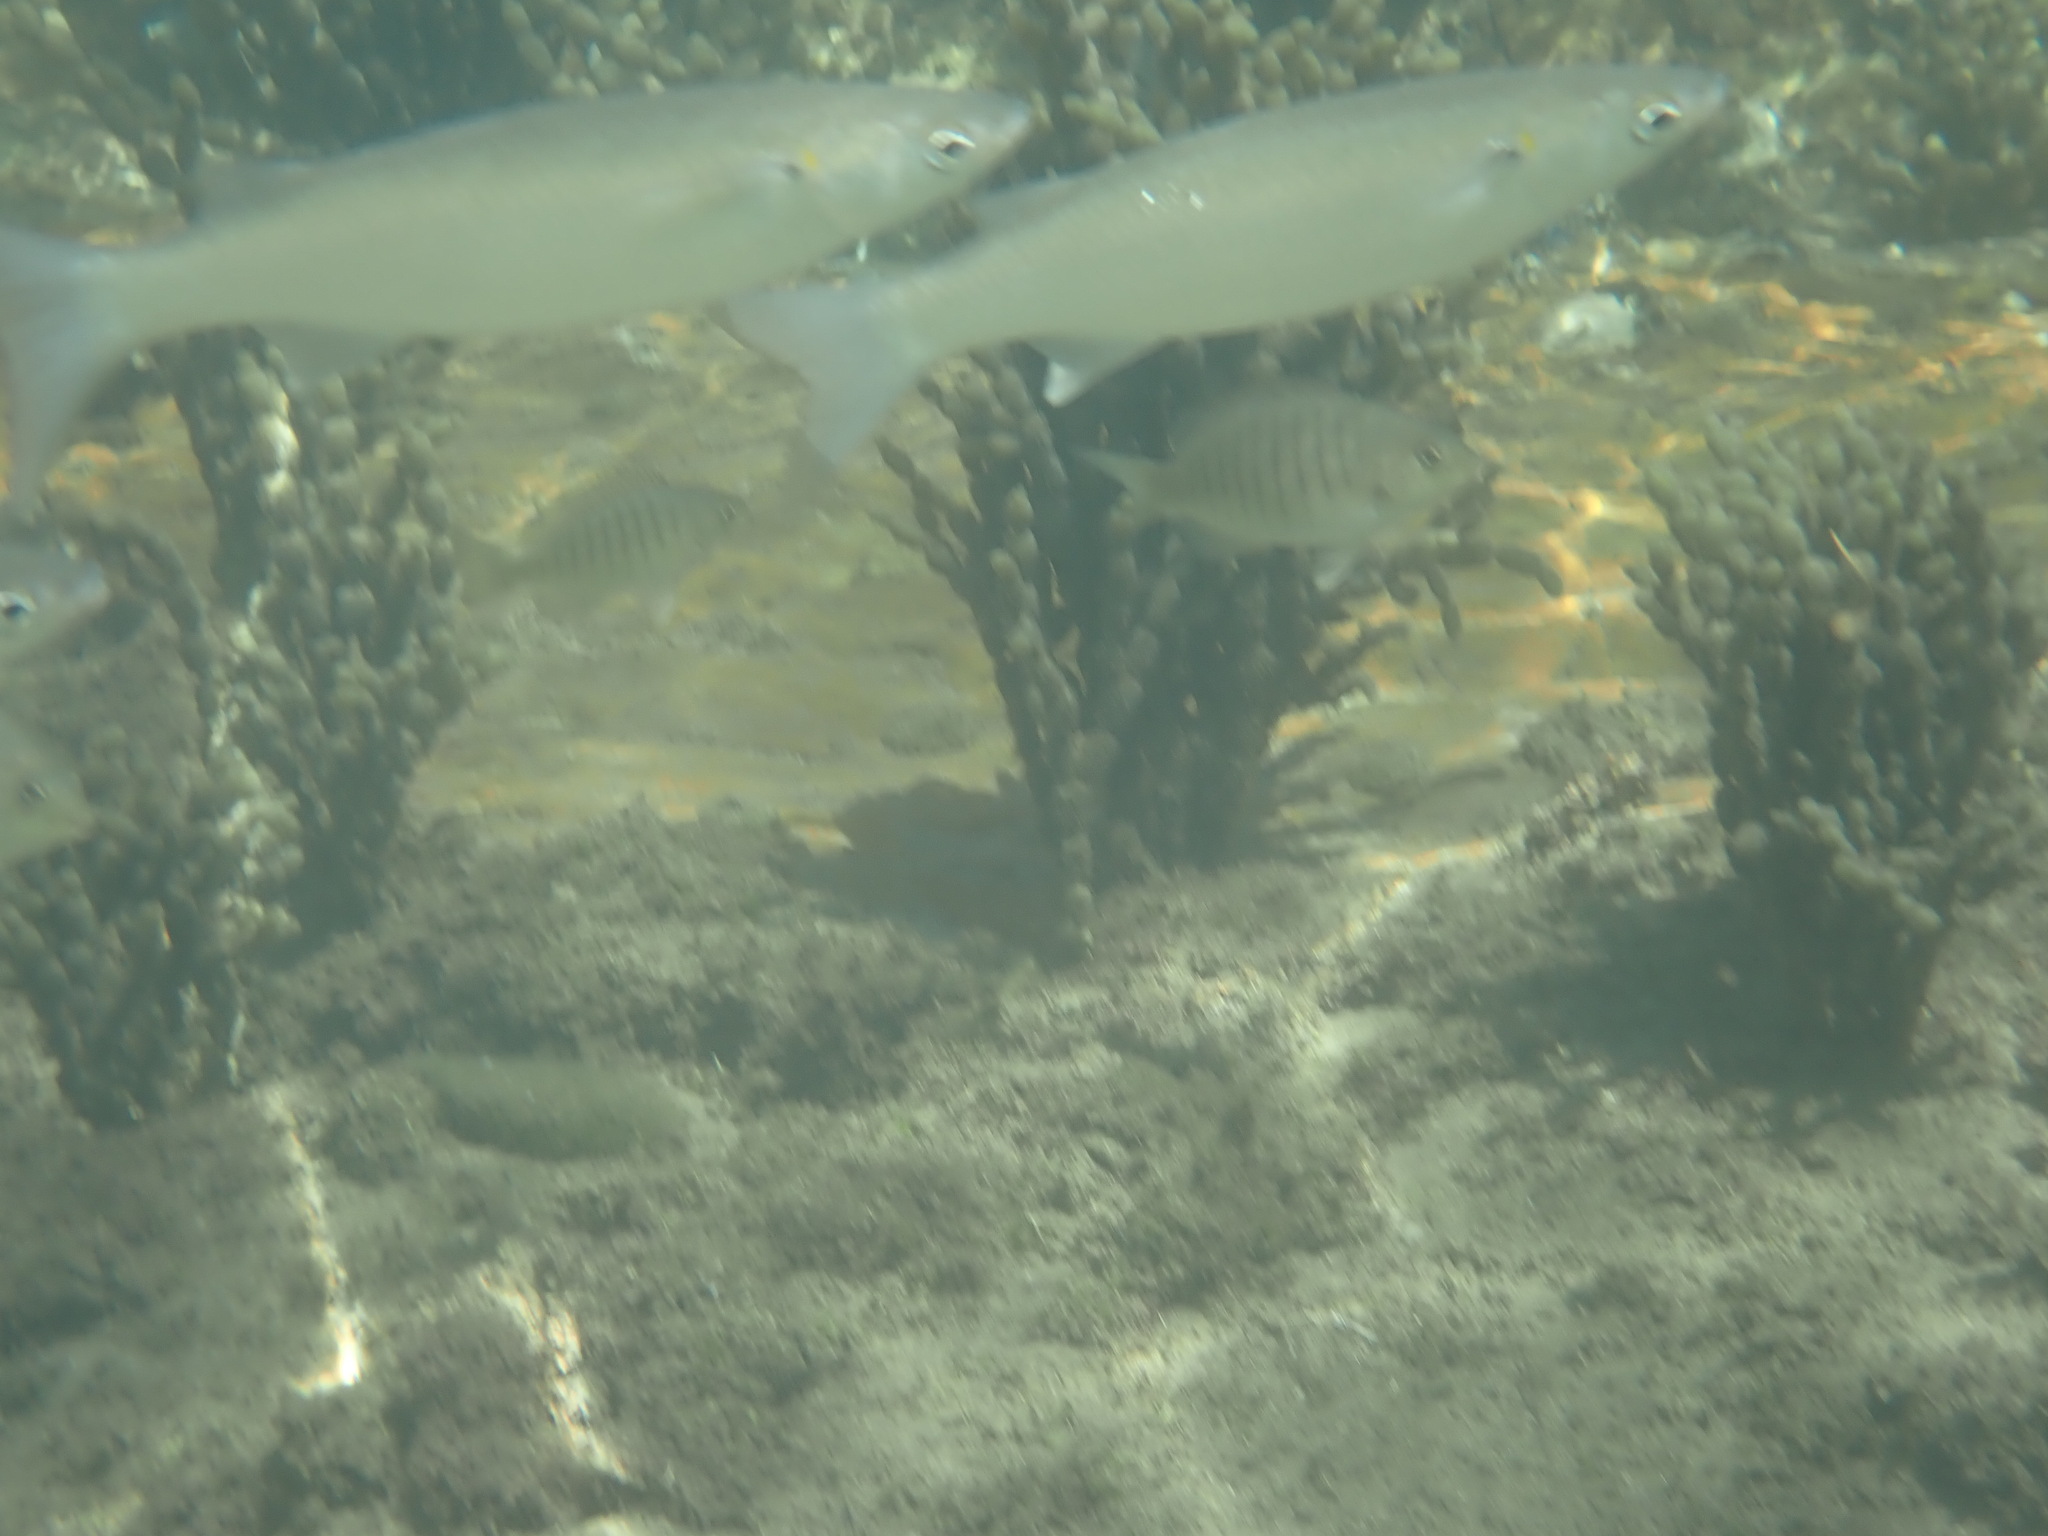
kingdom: Animalia
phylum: Chordata
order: Mugiliformes
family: Mugilidae
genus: Myxus
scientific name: Myxus elongatus
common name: Sand grey mullet
